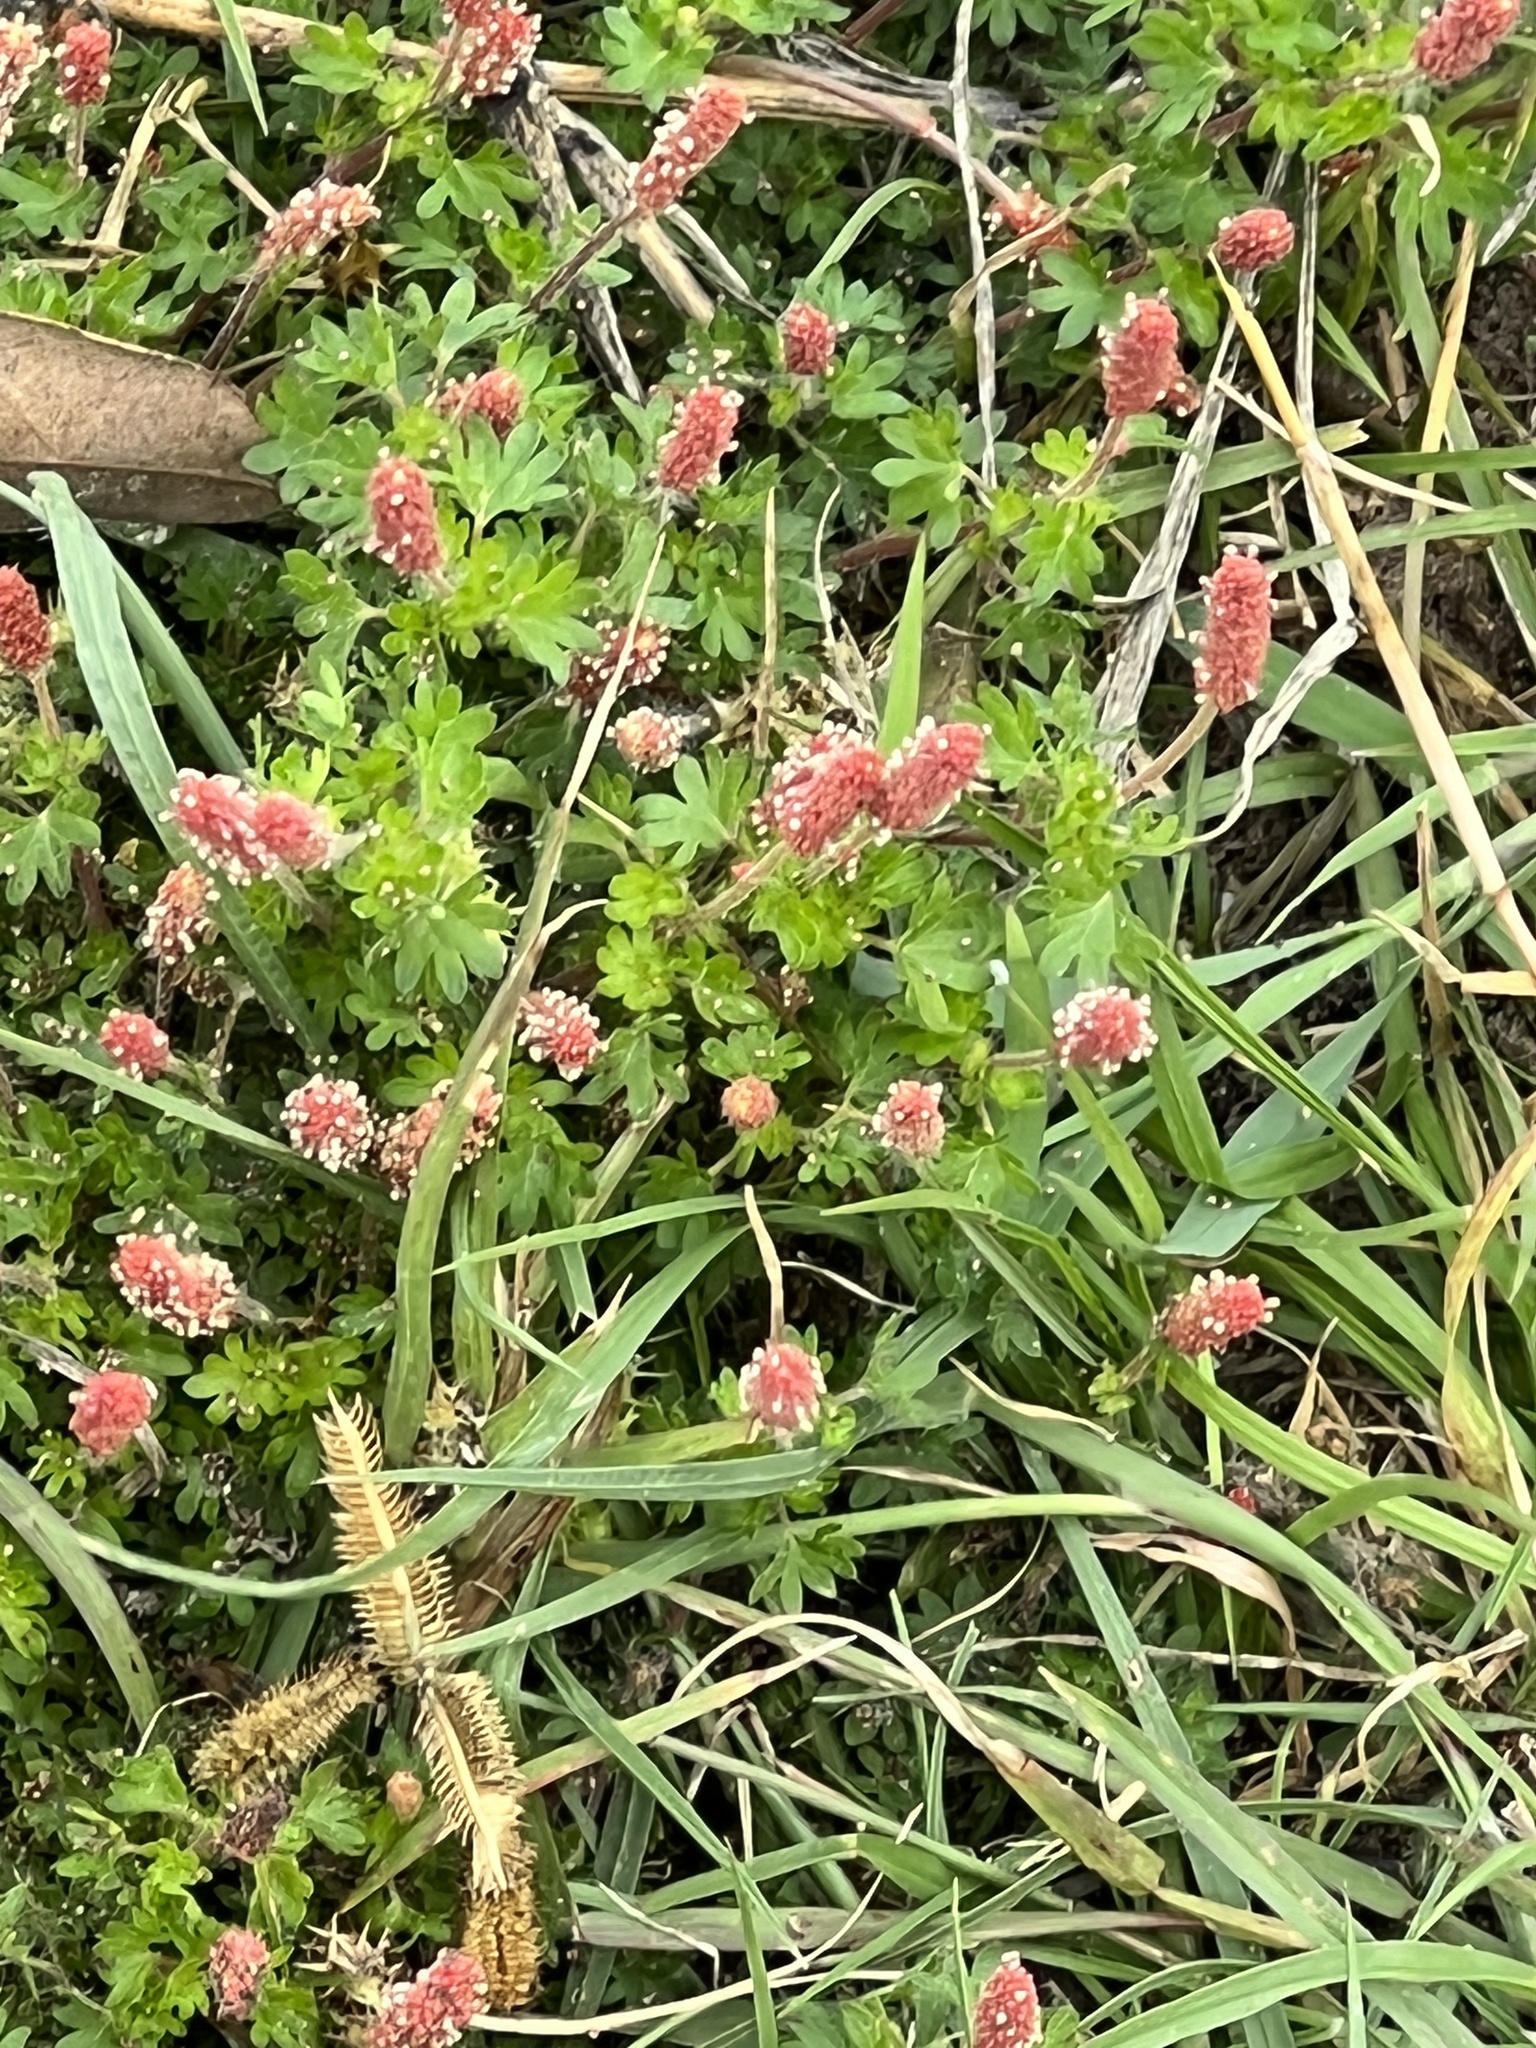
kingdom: Plantae
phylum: Tracheophyta
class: Magnoliopsida
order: Malpighiales
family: Euphorbiaceae
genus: Acalypha
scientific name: Acalypha radians
